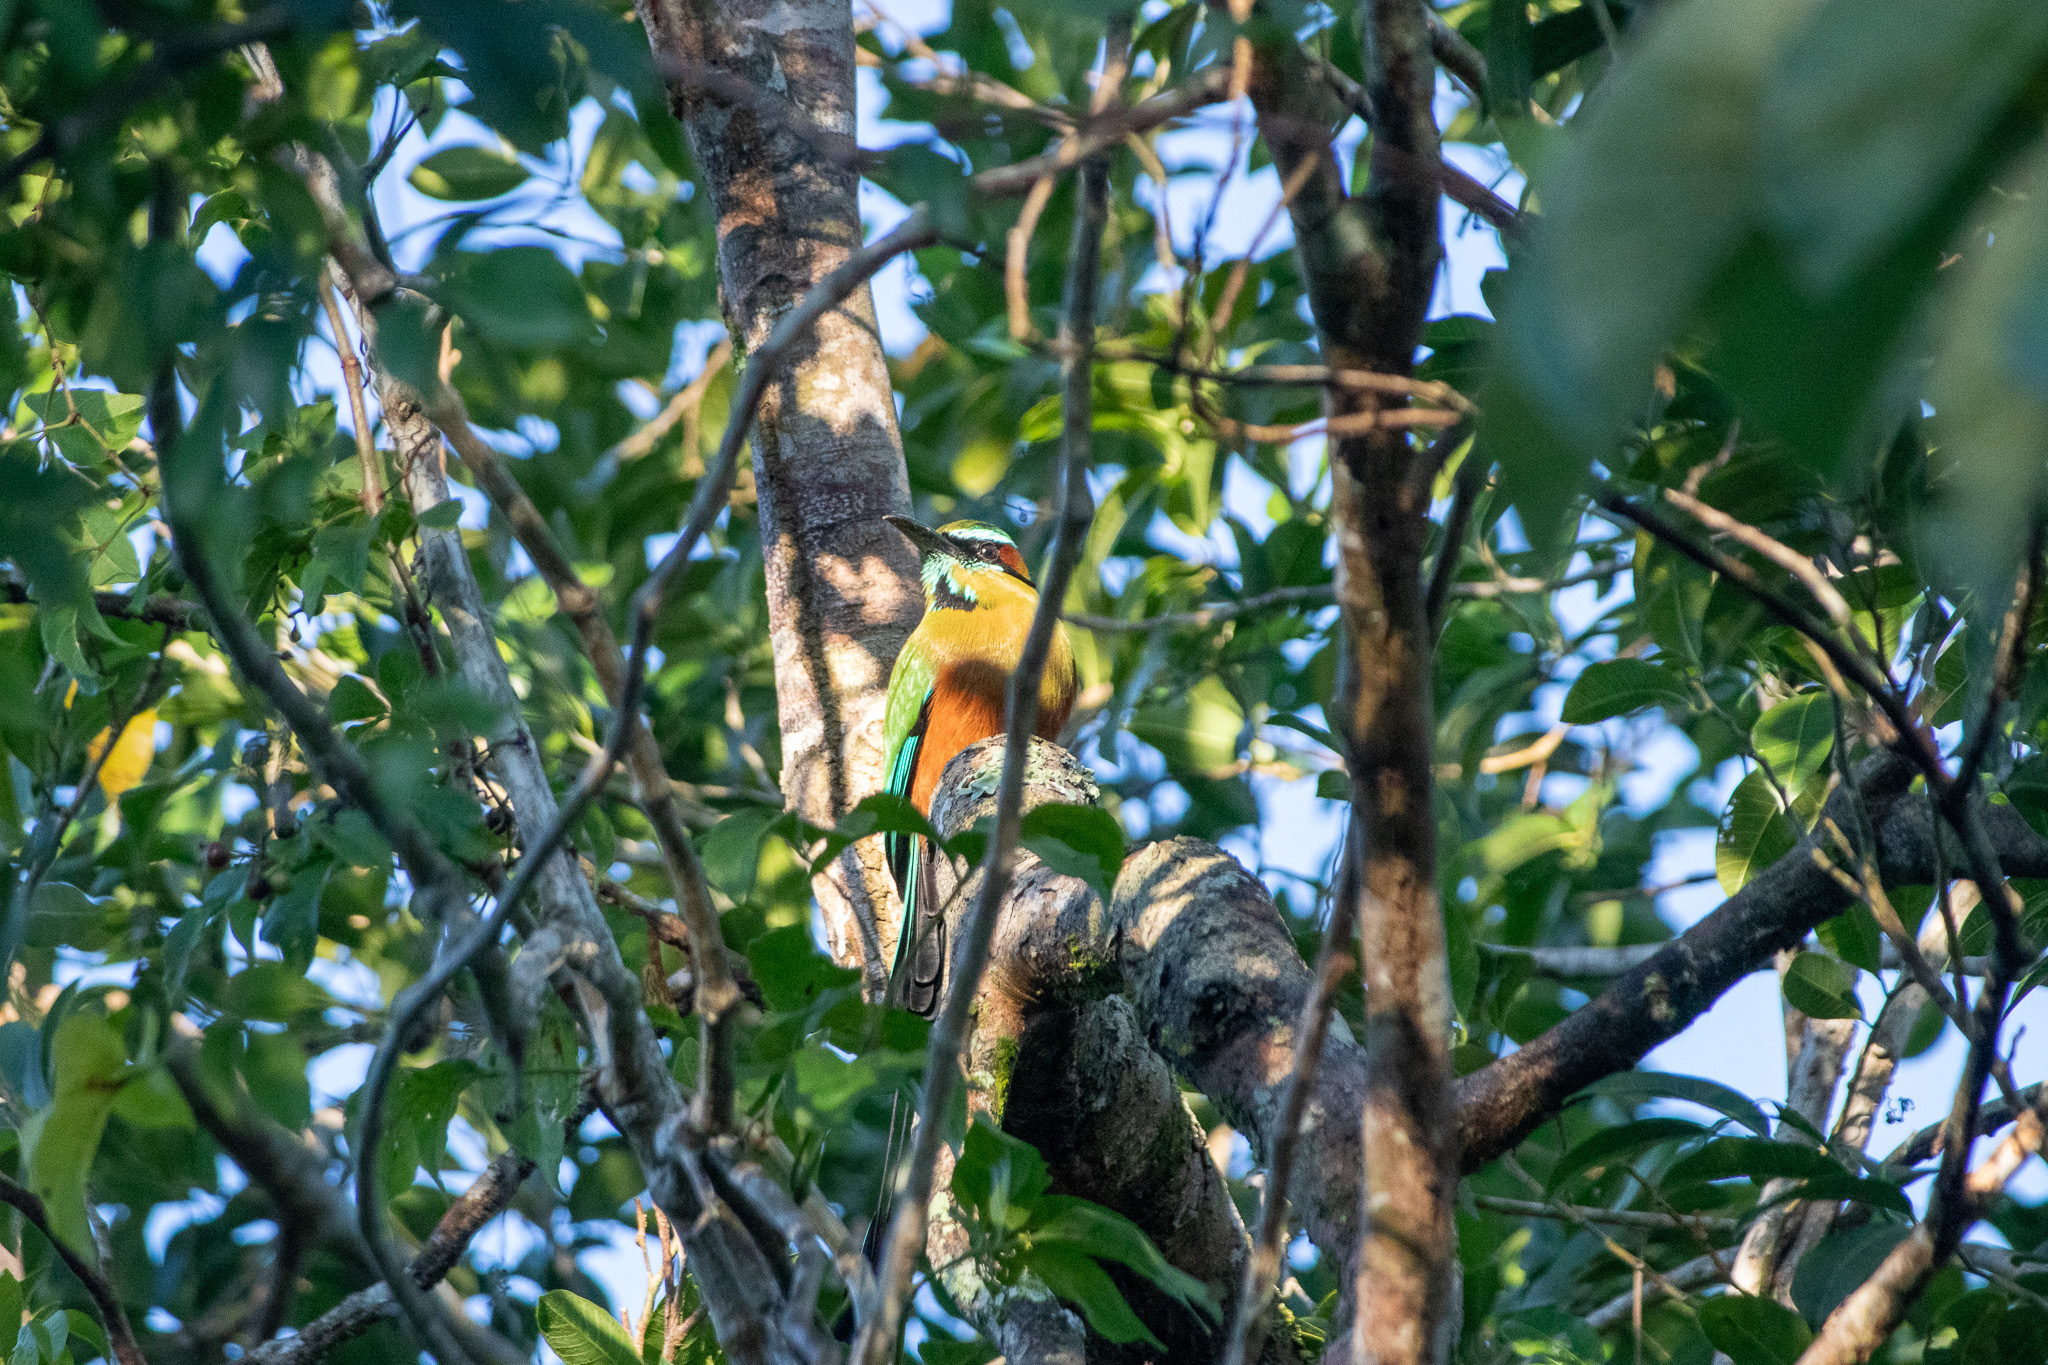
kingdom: Animalia
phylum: Chordata
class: Aves
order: Coraciiformes
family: Momotidae
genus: Eumomota
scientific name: Eumomota superciliosa
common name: Turquoise-browed motmot
